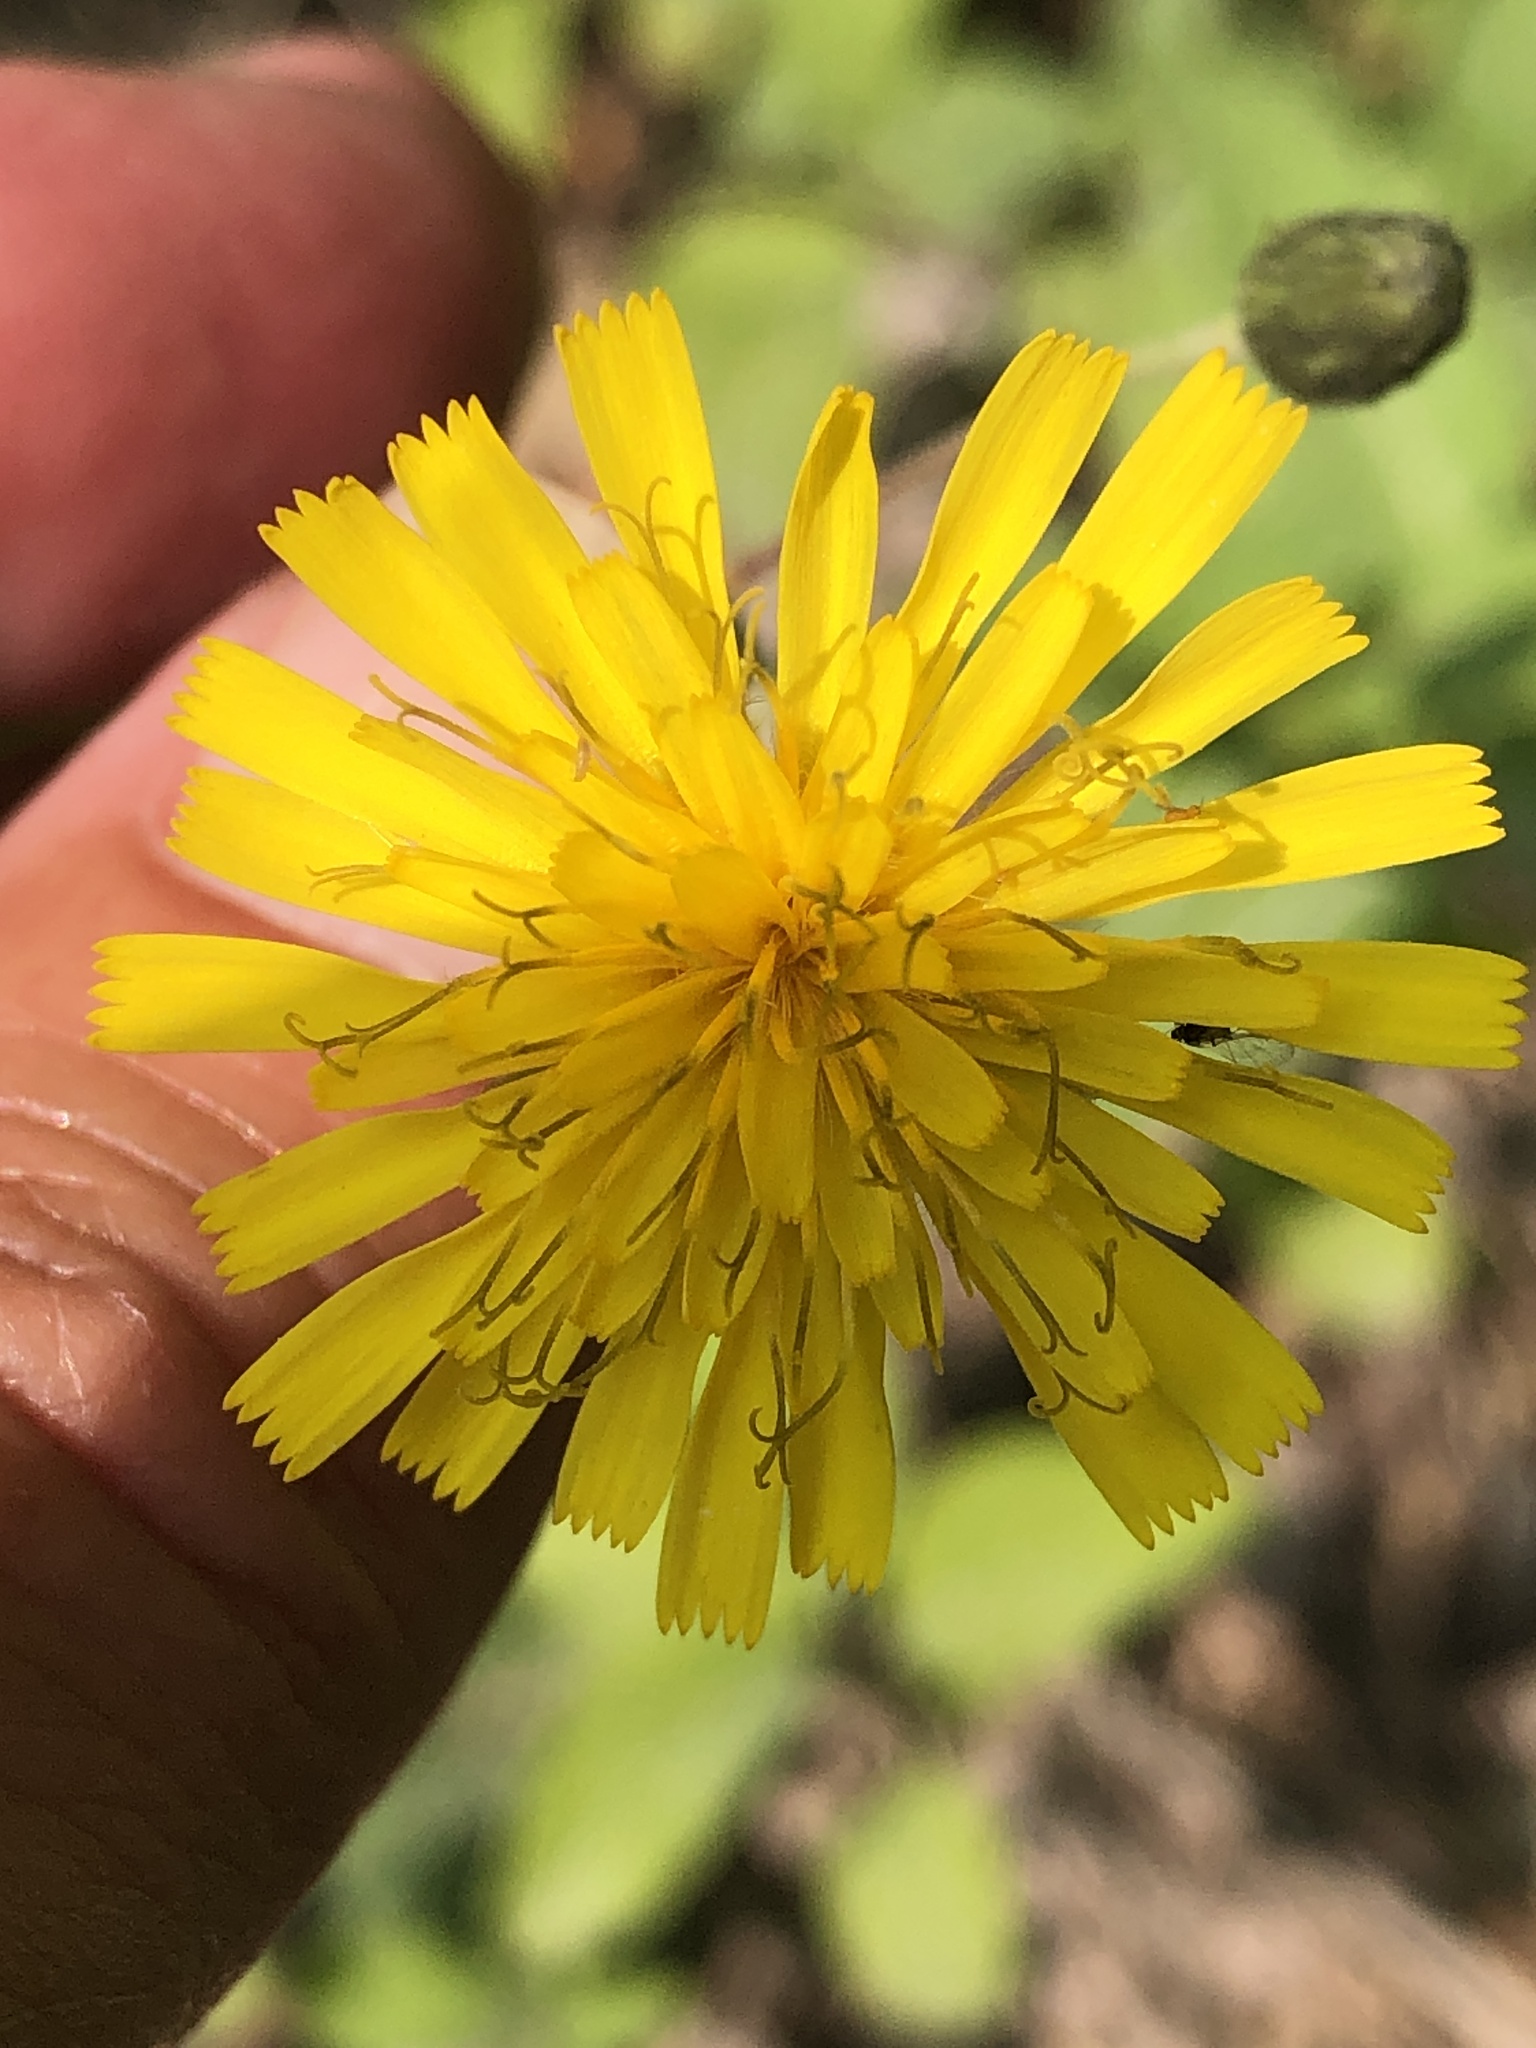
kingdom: Plantae
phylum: Tracheophyta
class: Magnoliopsida
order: Asterales
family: Asteraceae
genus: Hieracium
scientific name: Hieracium scabrum
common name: Rough hawkweed
